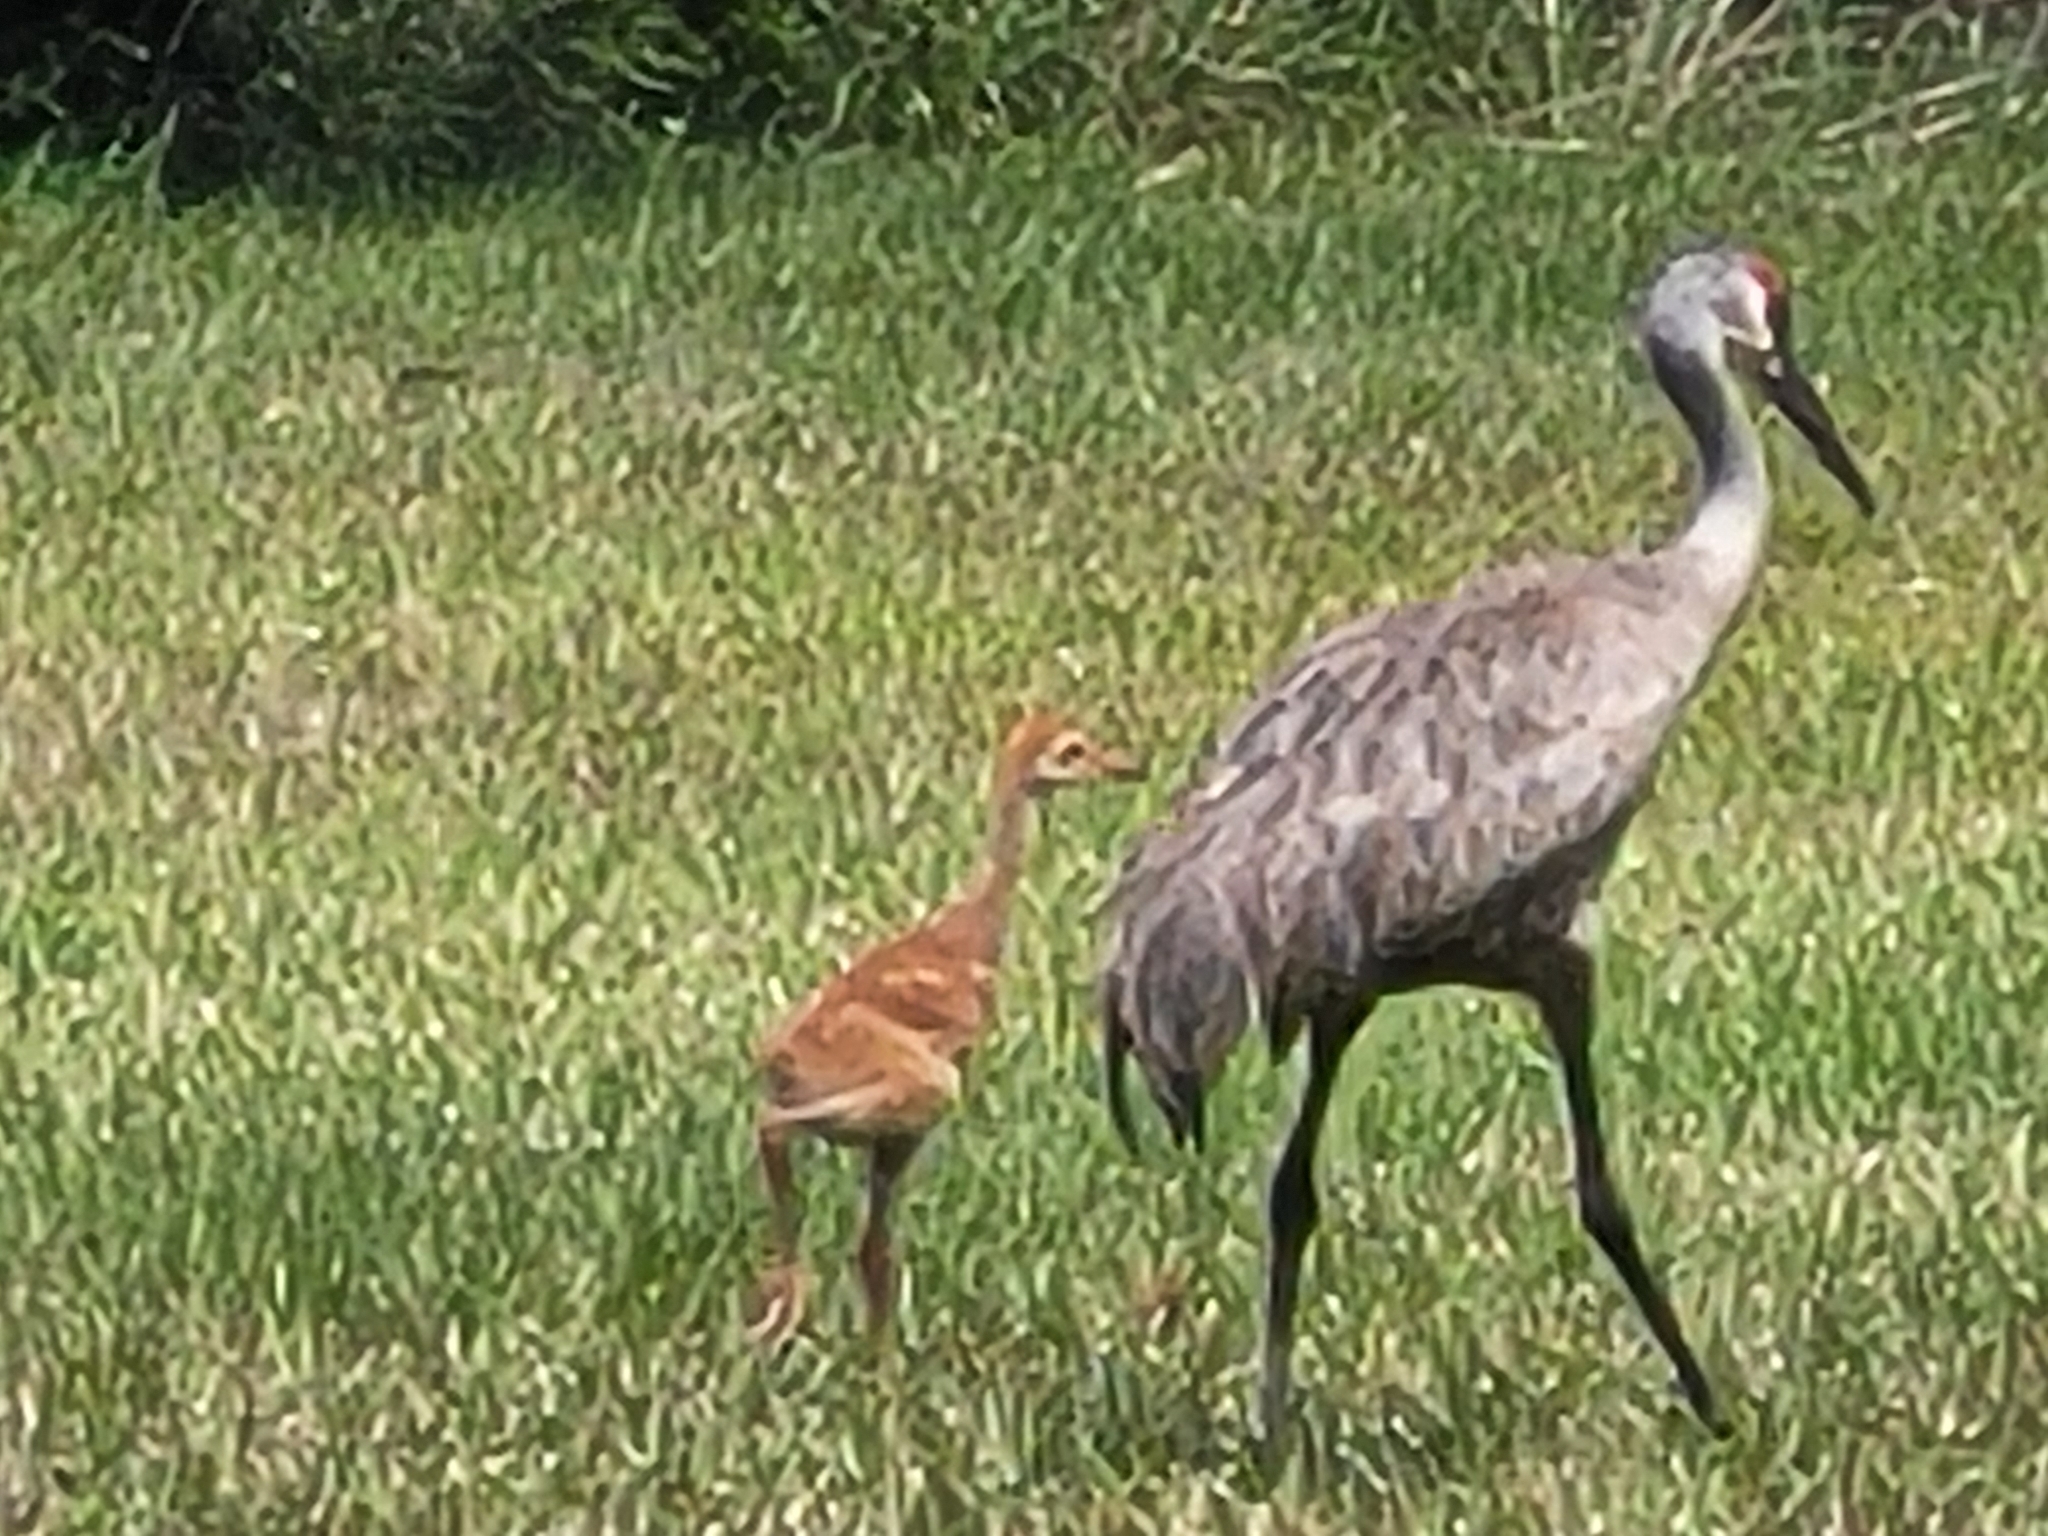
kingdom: Animalia
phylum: Chordata
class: Aves
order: Gruiformes
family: Gruidae
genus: Grus
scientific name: Grus canadensis
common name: Sandhill crane
